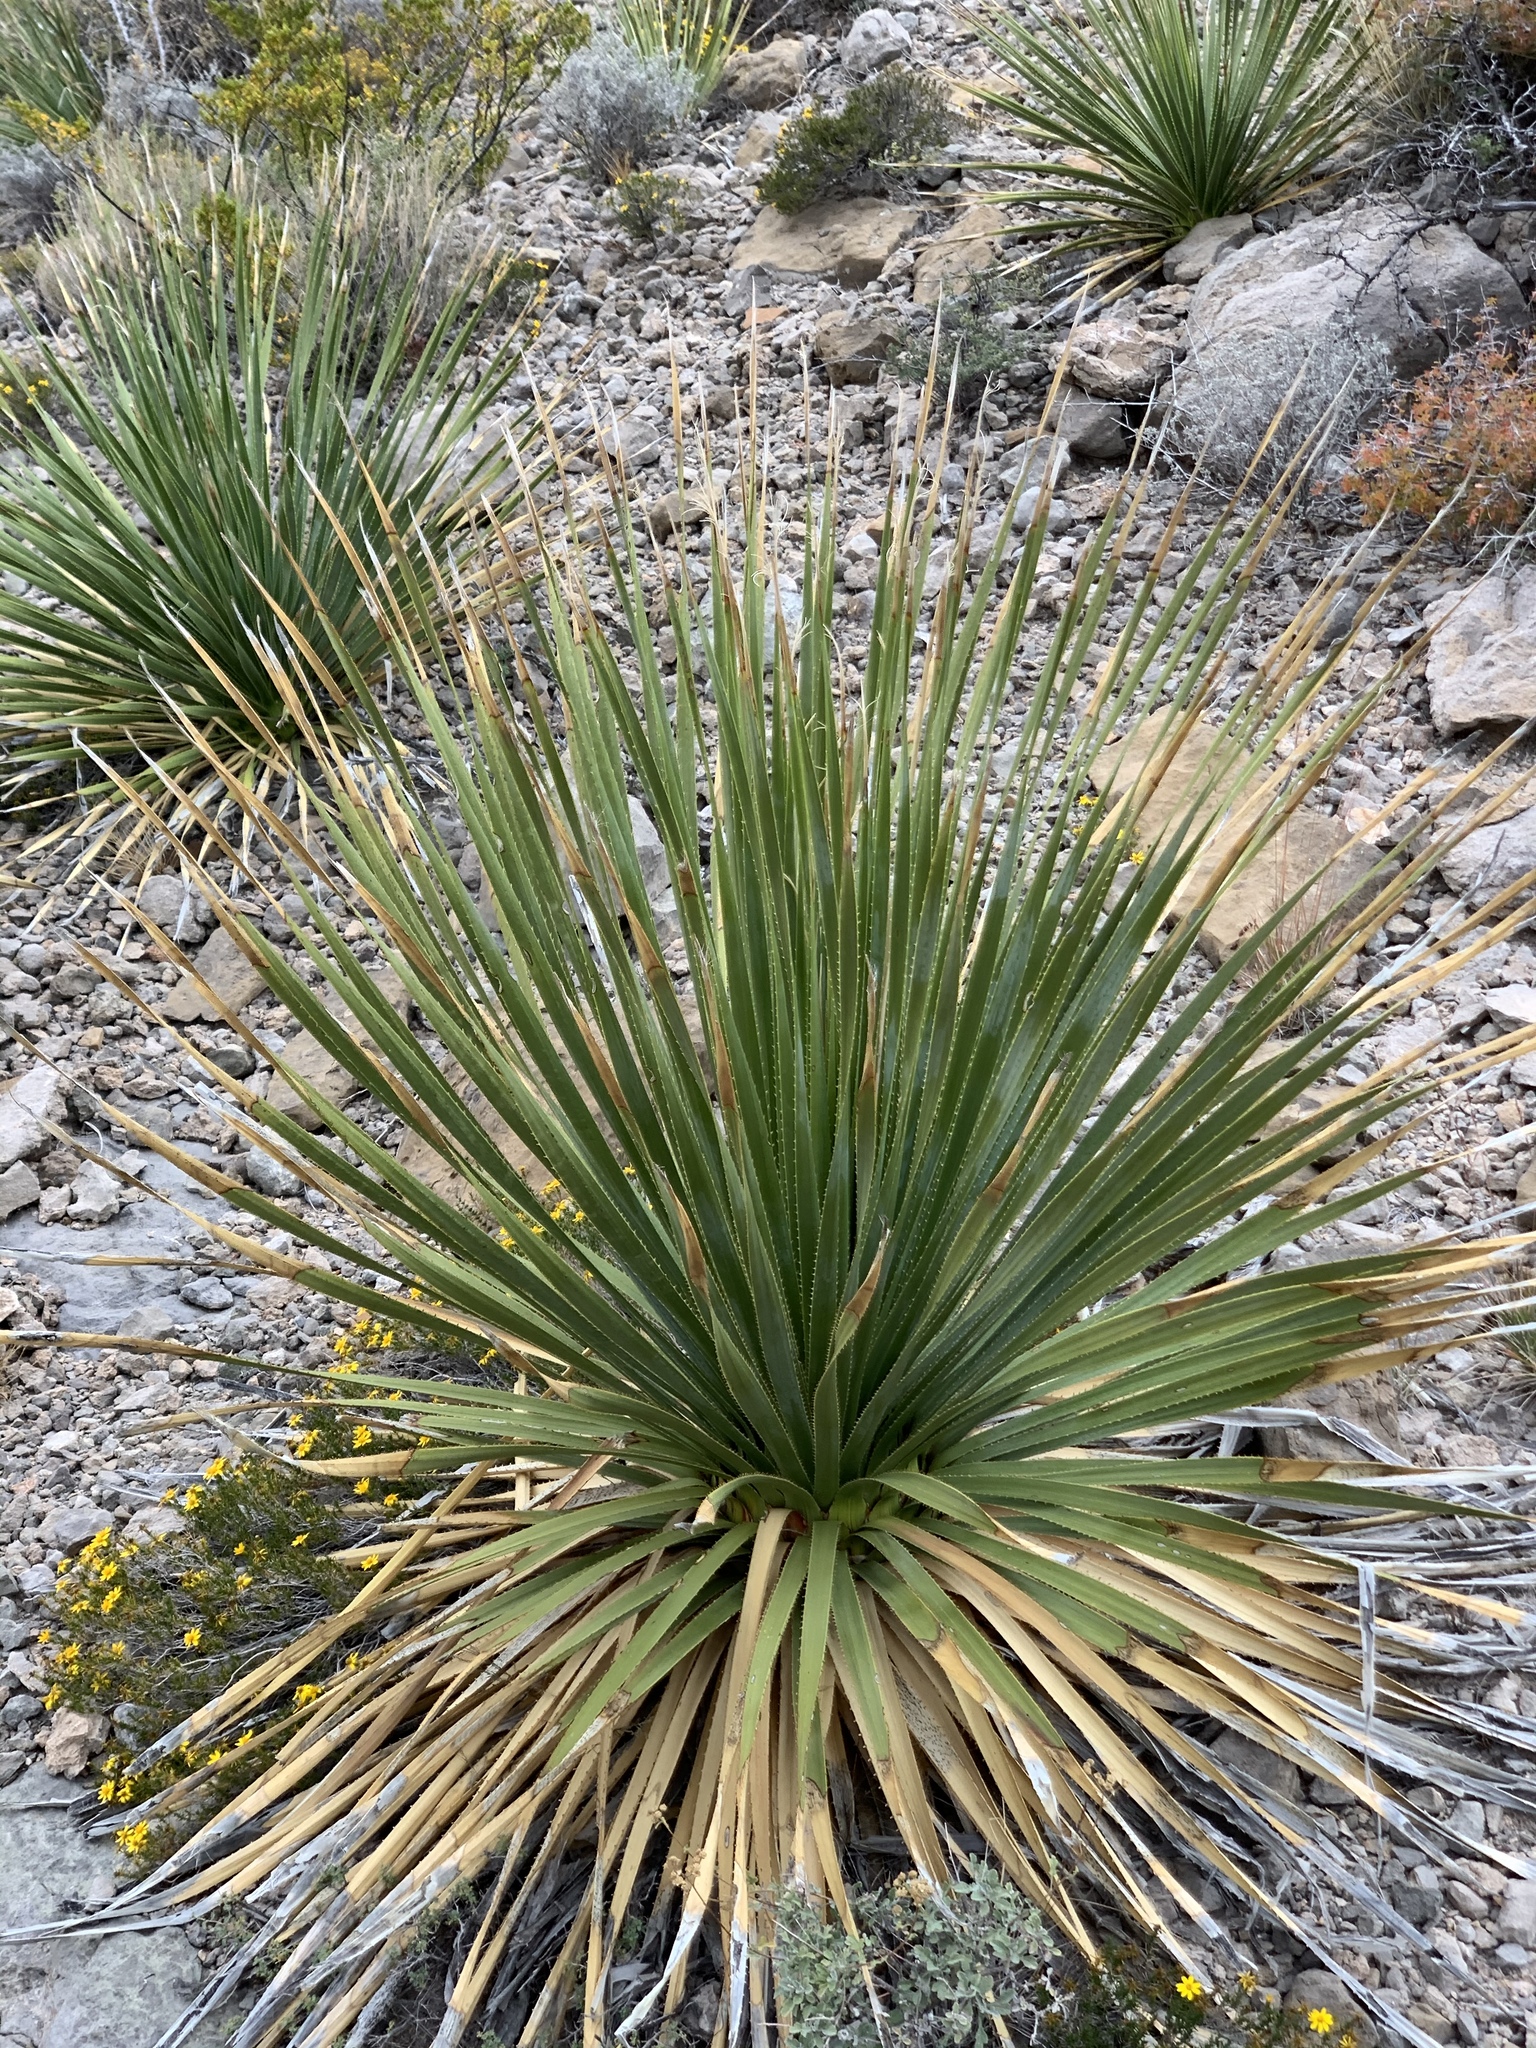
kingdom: Plantae
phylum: Tracheophyta
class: Liliopsida
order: Asparagales
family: Asparagaceae
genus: Dasylirion
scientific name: Dasylirion wheeleri
